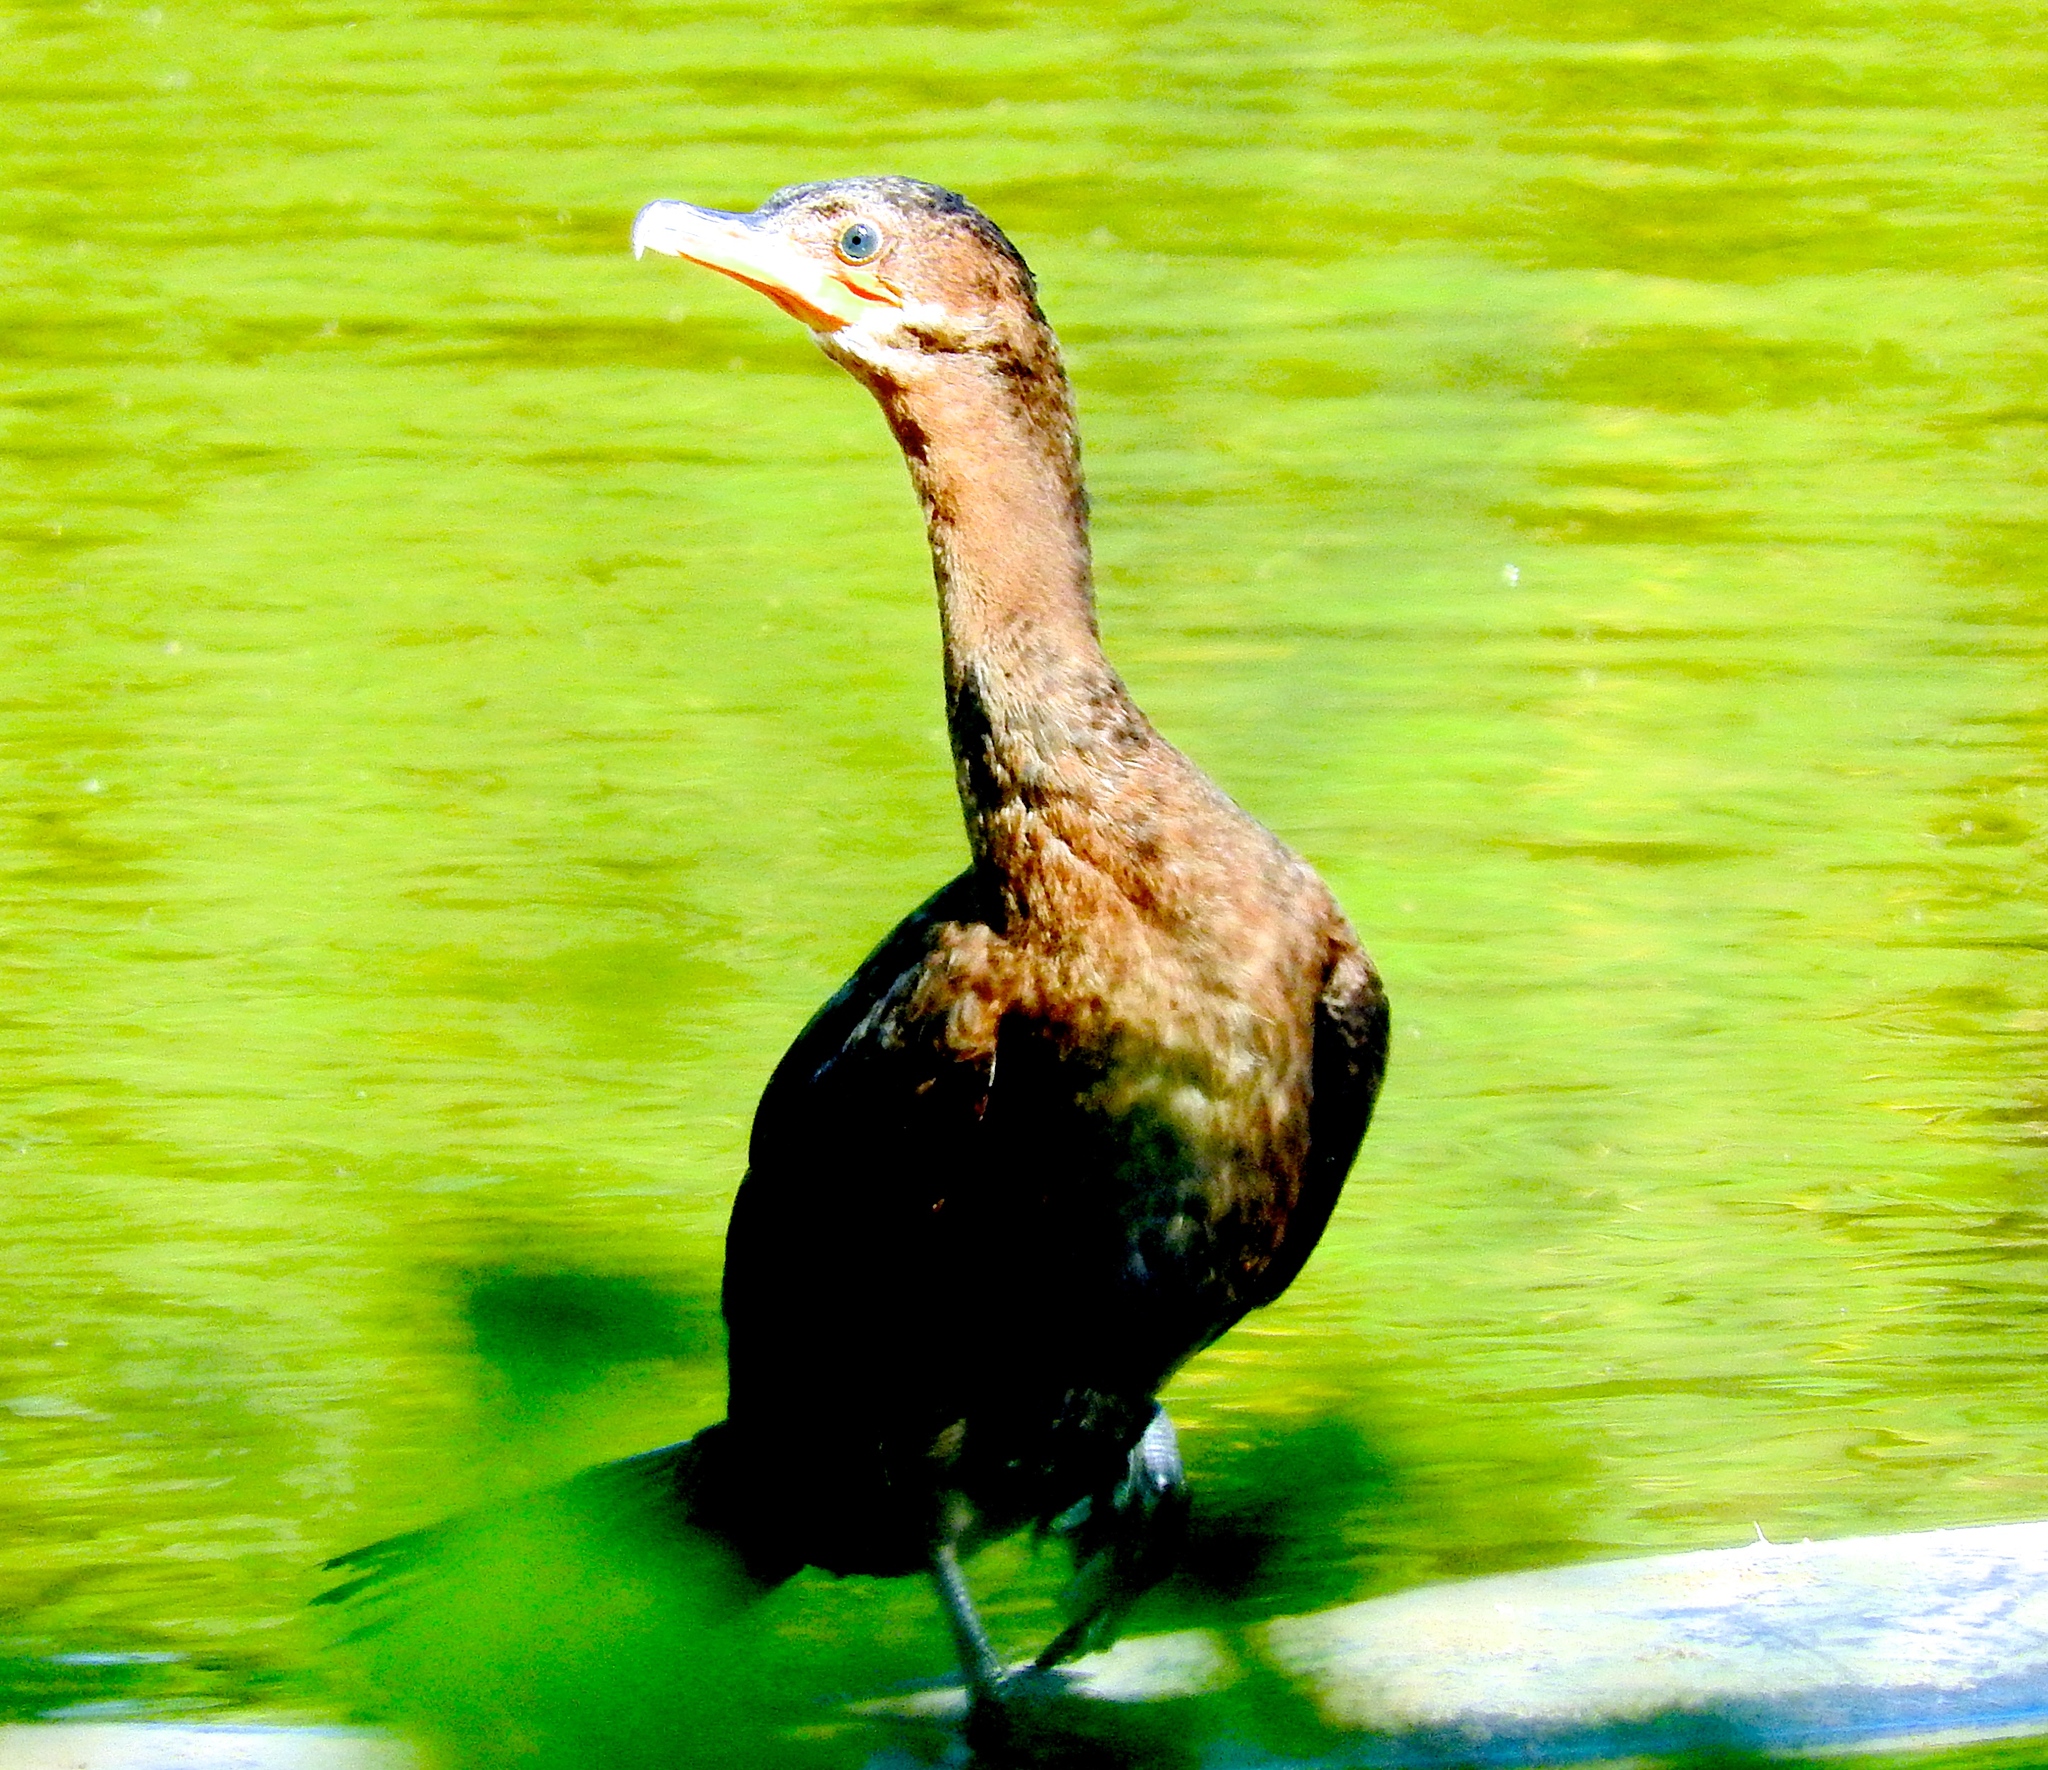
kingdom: Animalia
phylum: Chordata
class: Aves
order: Suliformes
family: Phalacrocoracidae
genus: Phalacrocorax
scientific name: Phalacrocorax brasilianus
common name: Neotropic cormorant
